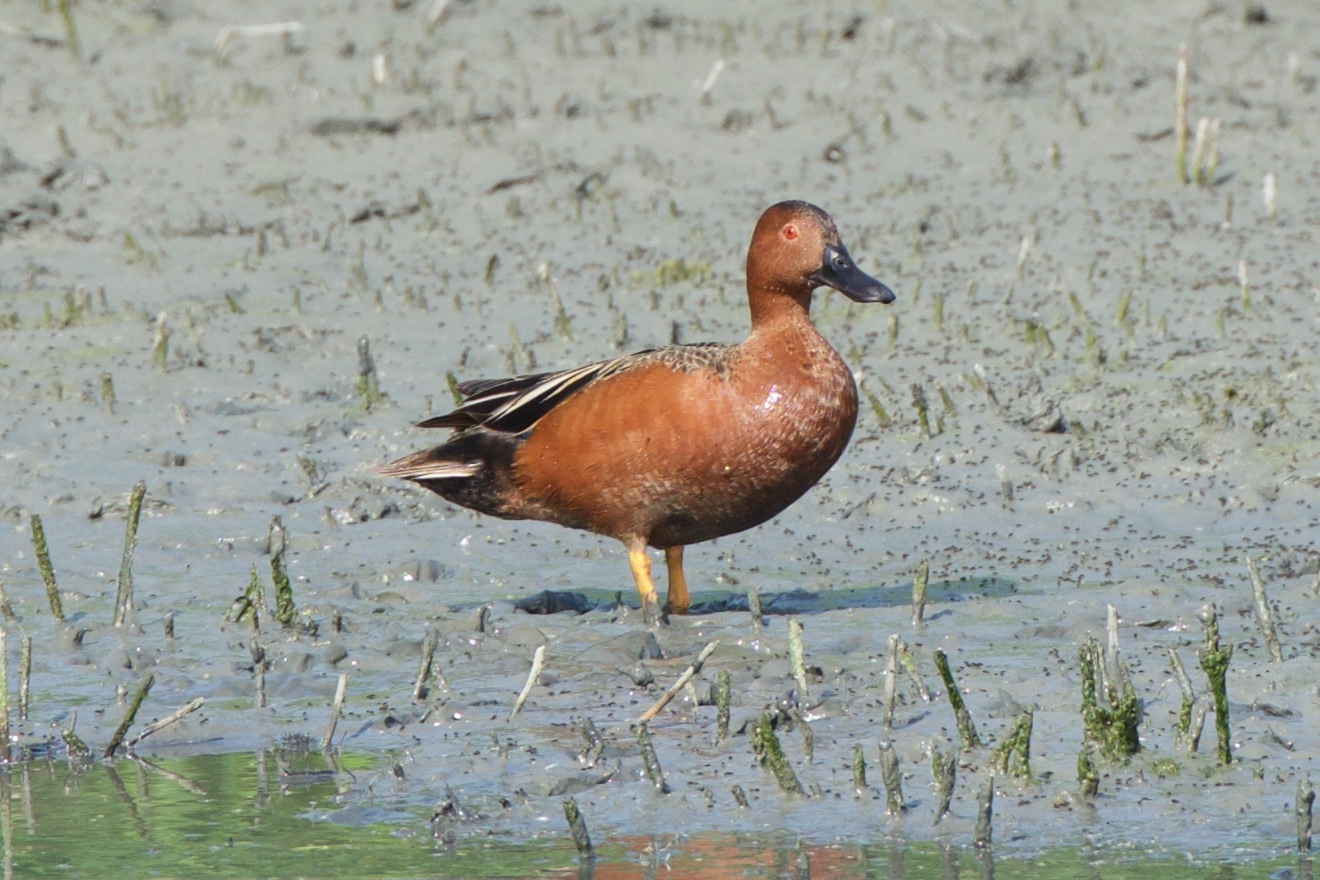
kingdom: Animalia
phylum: Chordata
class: Aves
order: Anseriformes
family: Anatidae
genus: Spatula
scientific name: Spatula cyanoptera
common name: Cinnamon teal
